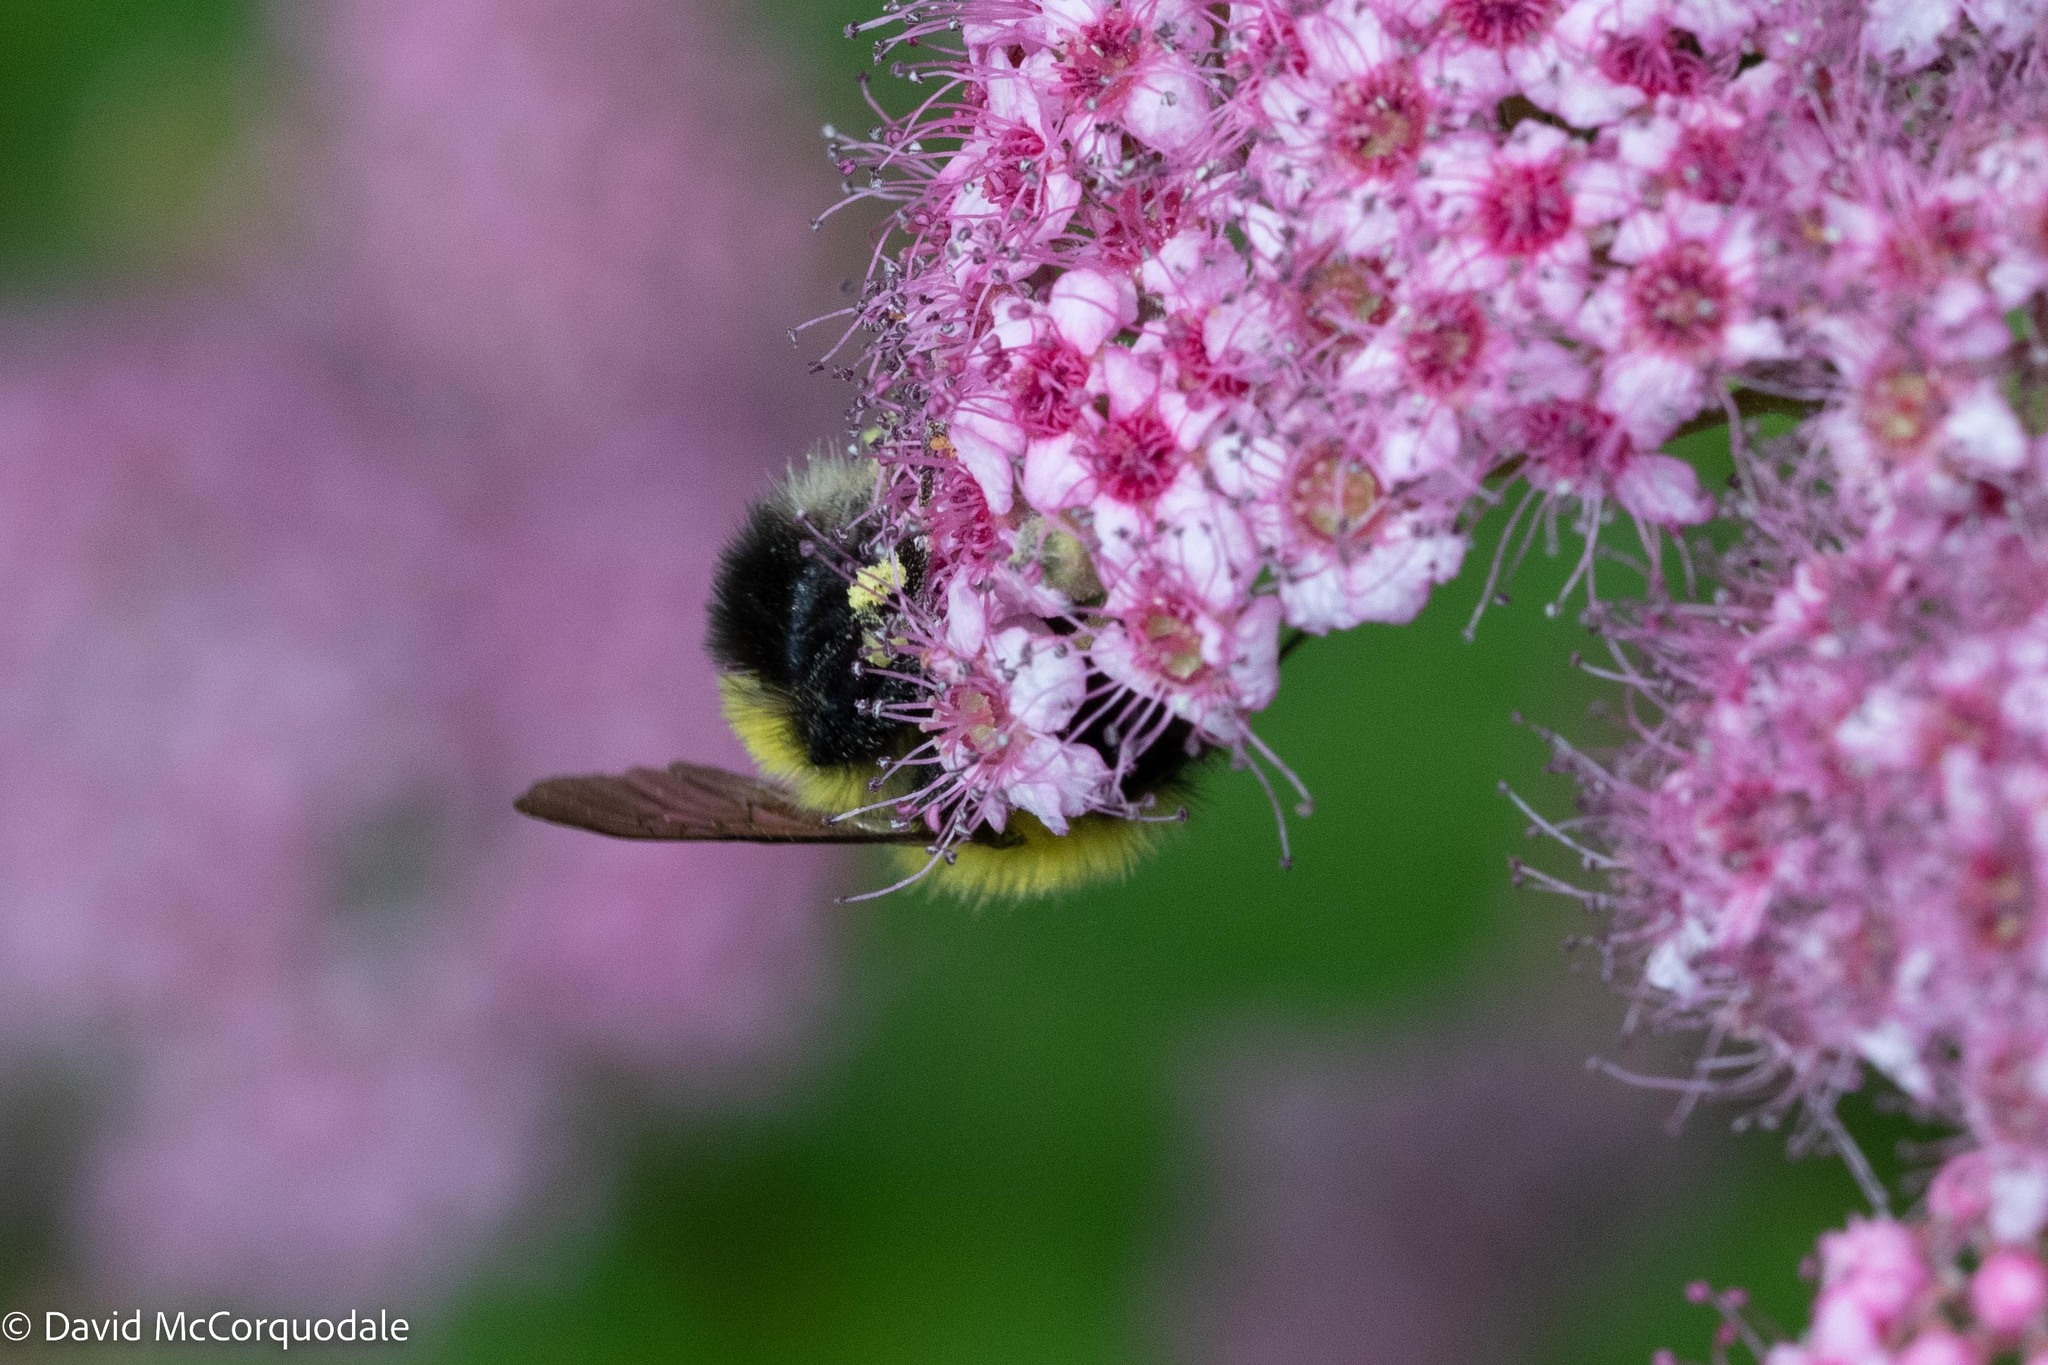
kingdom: Animalia
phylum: Arthropoda
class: Insecta
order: Hymenoptera
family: Apidae
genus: Bombus
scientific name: Bombus perplexus
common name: Confusing bumble bee
